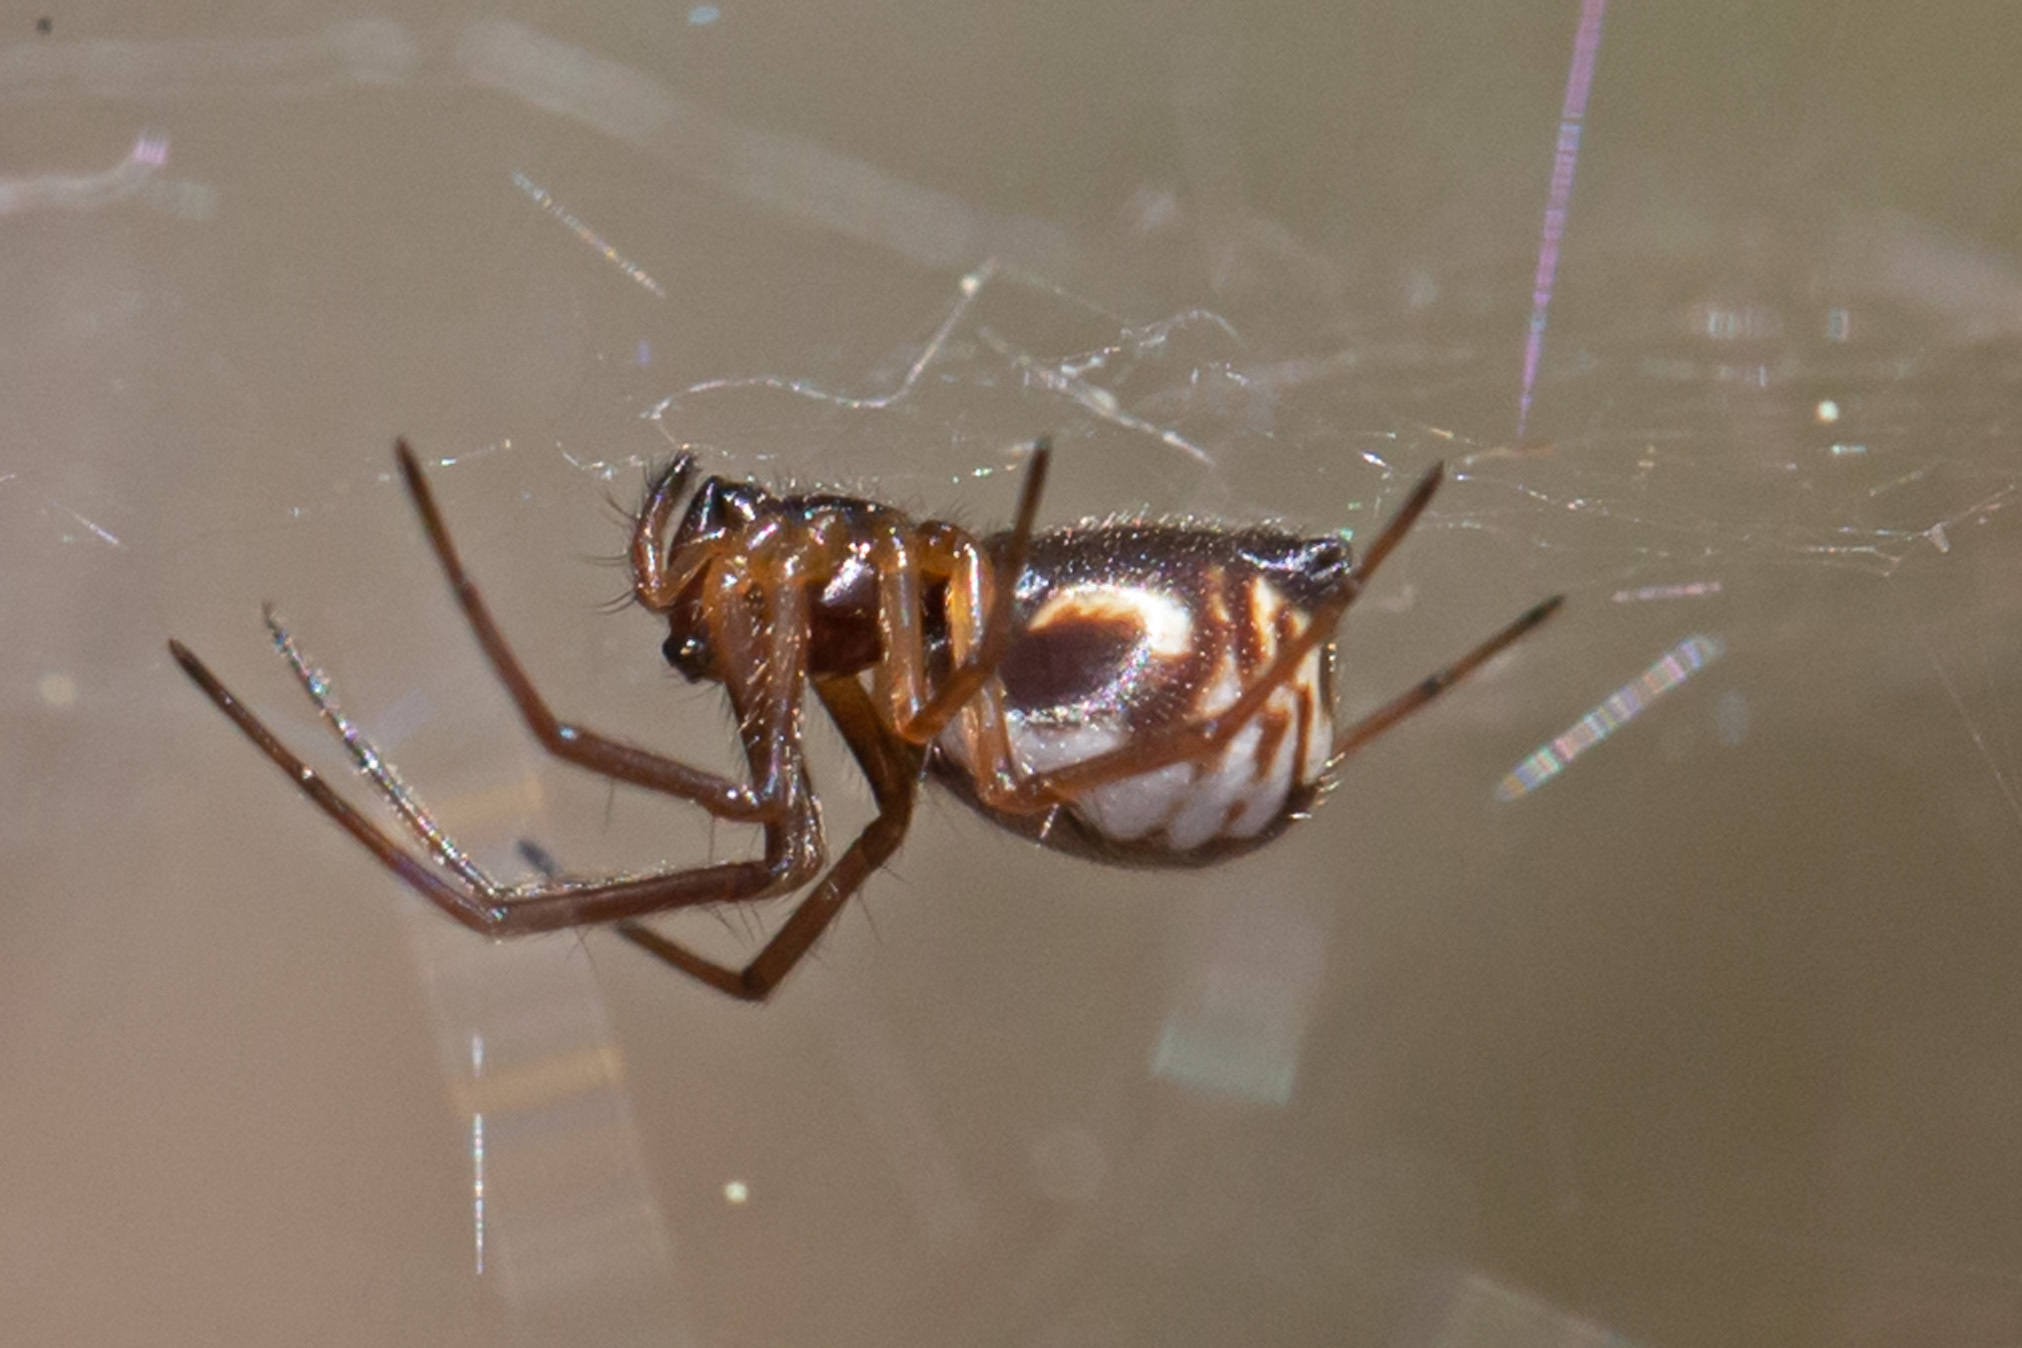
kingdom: Animalia
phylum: Arthropoda
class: Arachnida
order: Araneae
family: Linyphiidae
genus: Frontinella
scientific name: Frontinella pyramitela
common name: Bowl-and-doily spider
